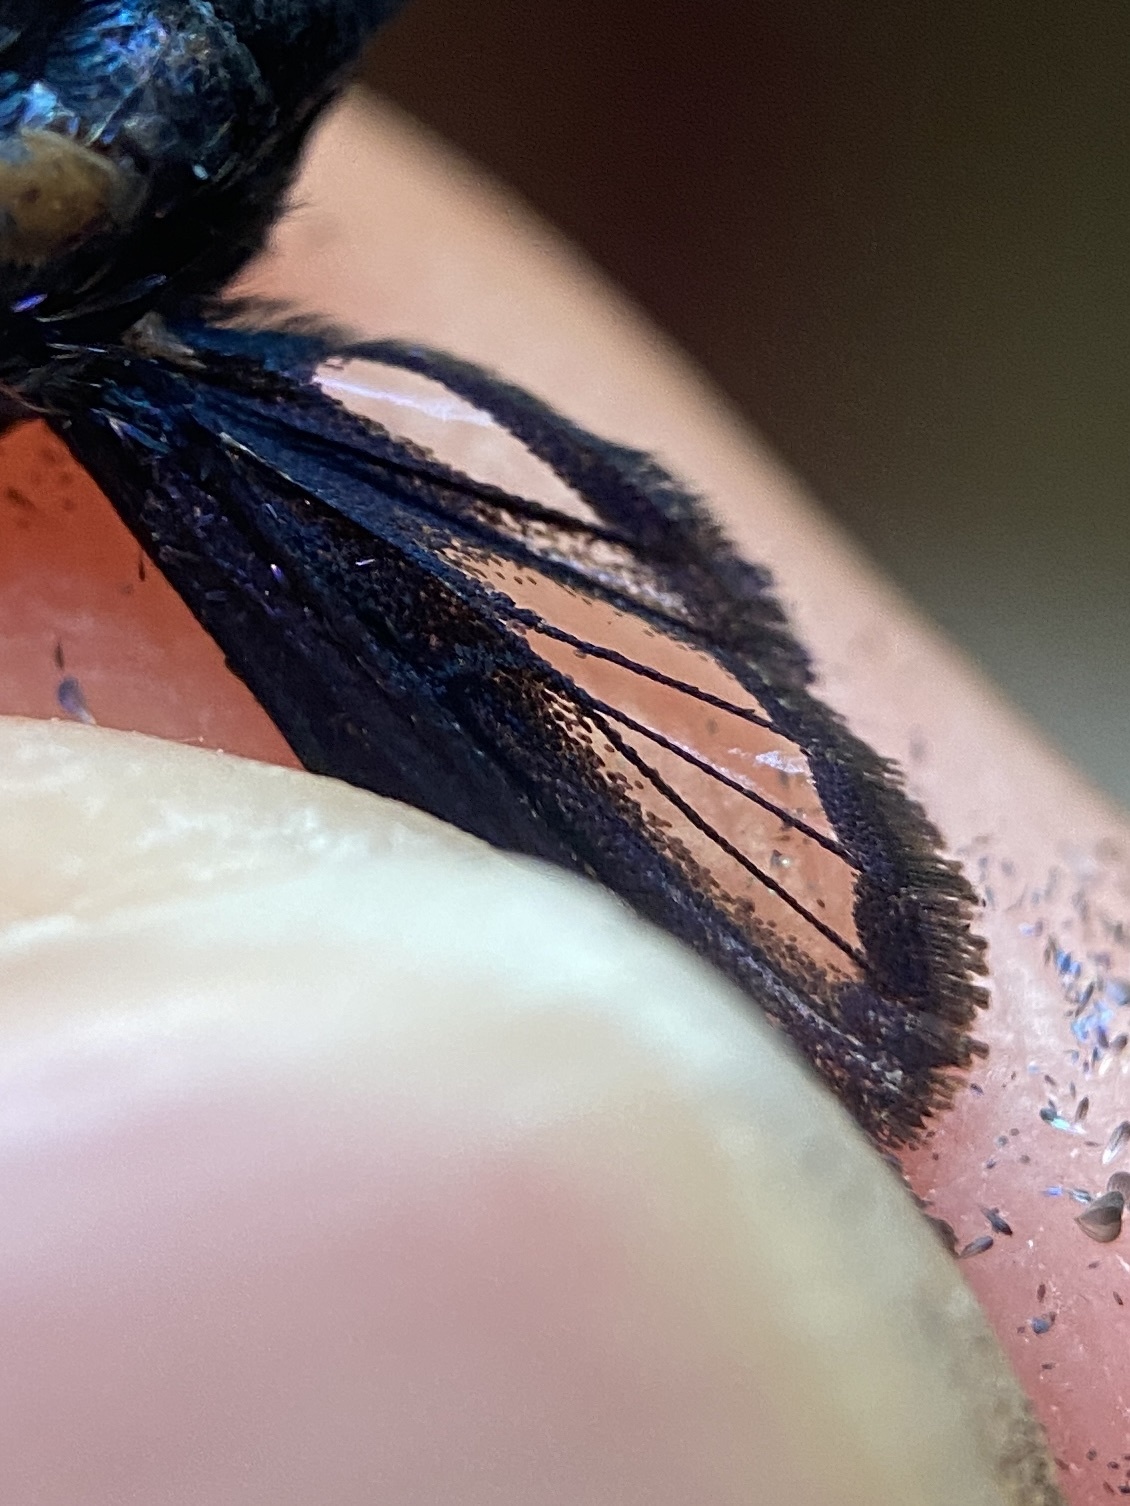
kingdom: Animalia
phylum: Arthropoda
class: Insecta
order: Lepidoptera
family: Sesiidae
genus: Synanthedon
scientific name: Synanthedon exitiosa
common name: Peachtree borer moth
